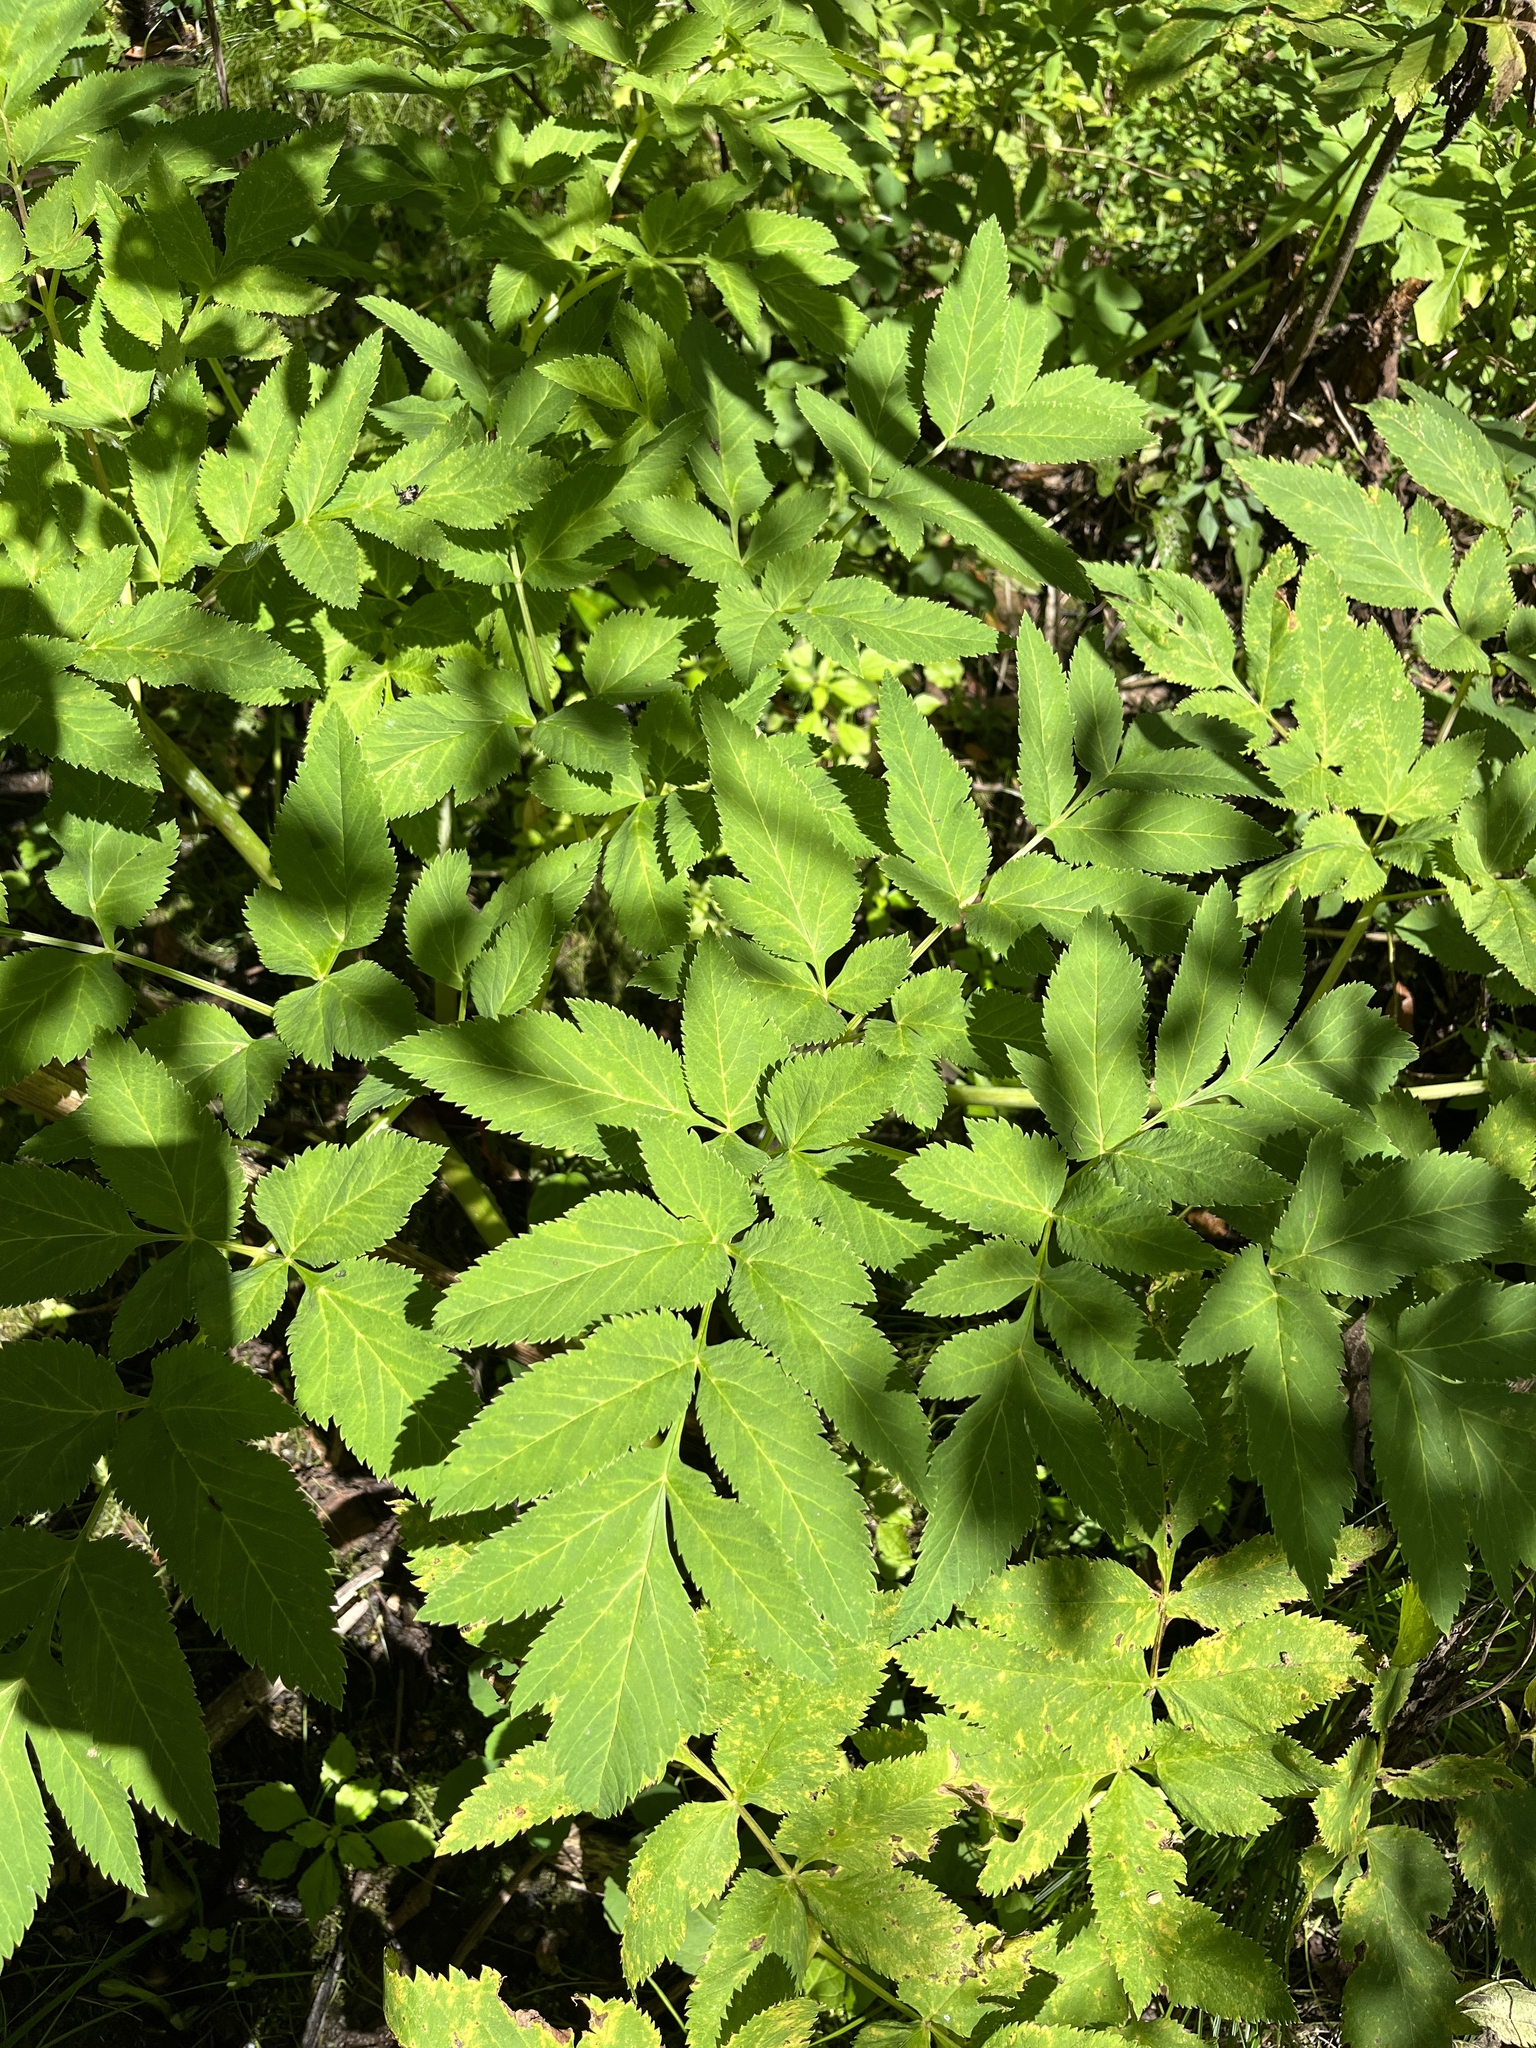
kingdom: Plantae
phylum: Tracheophyta
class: Magnoliopsida
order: Apiales
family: Apiaceae
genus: Angelica
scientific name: Angelica atropurpurea
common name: Great angelica
